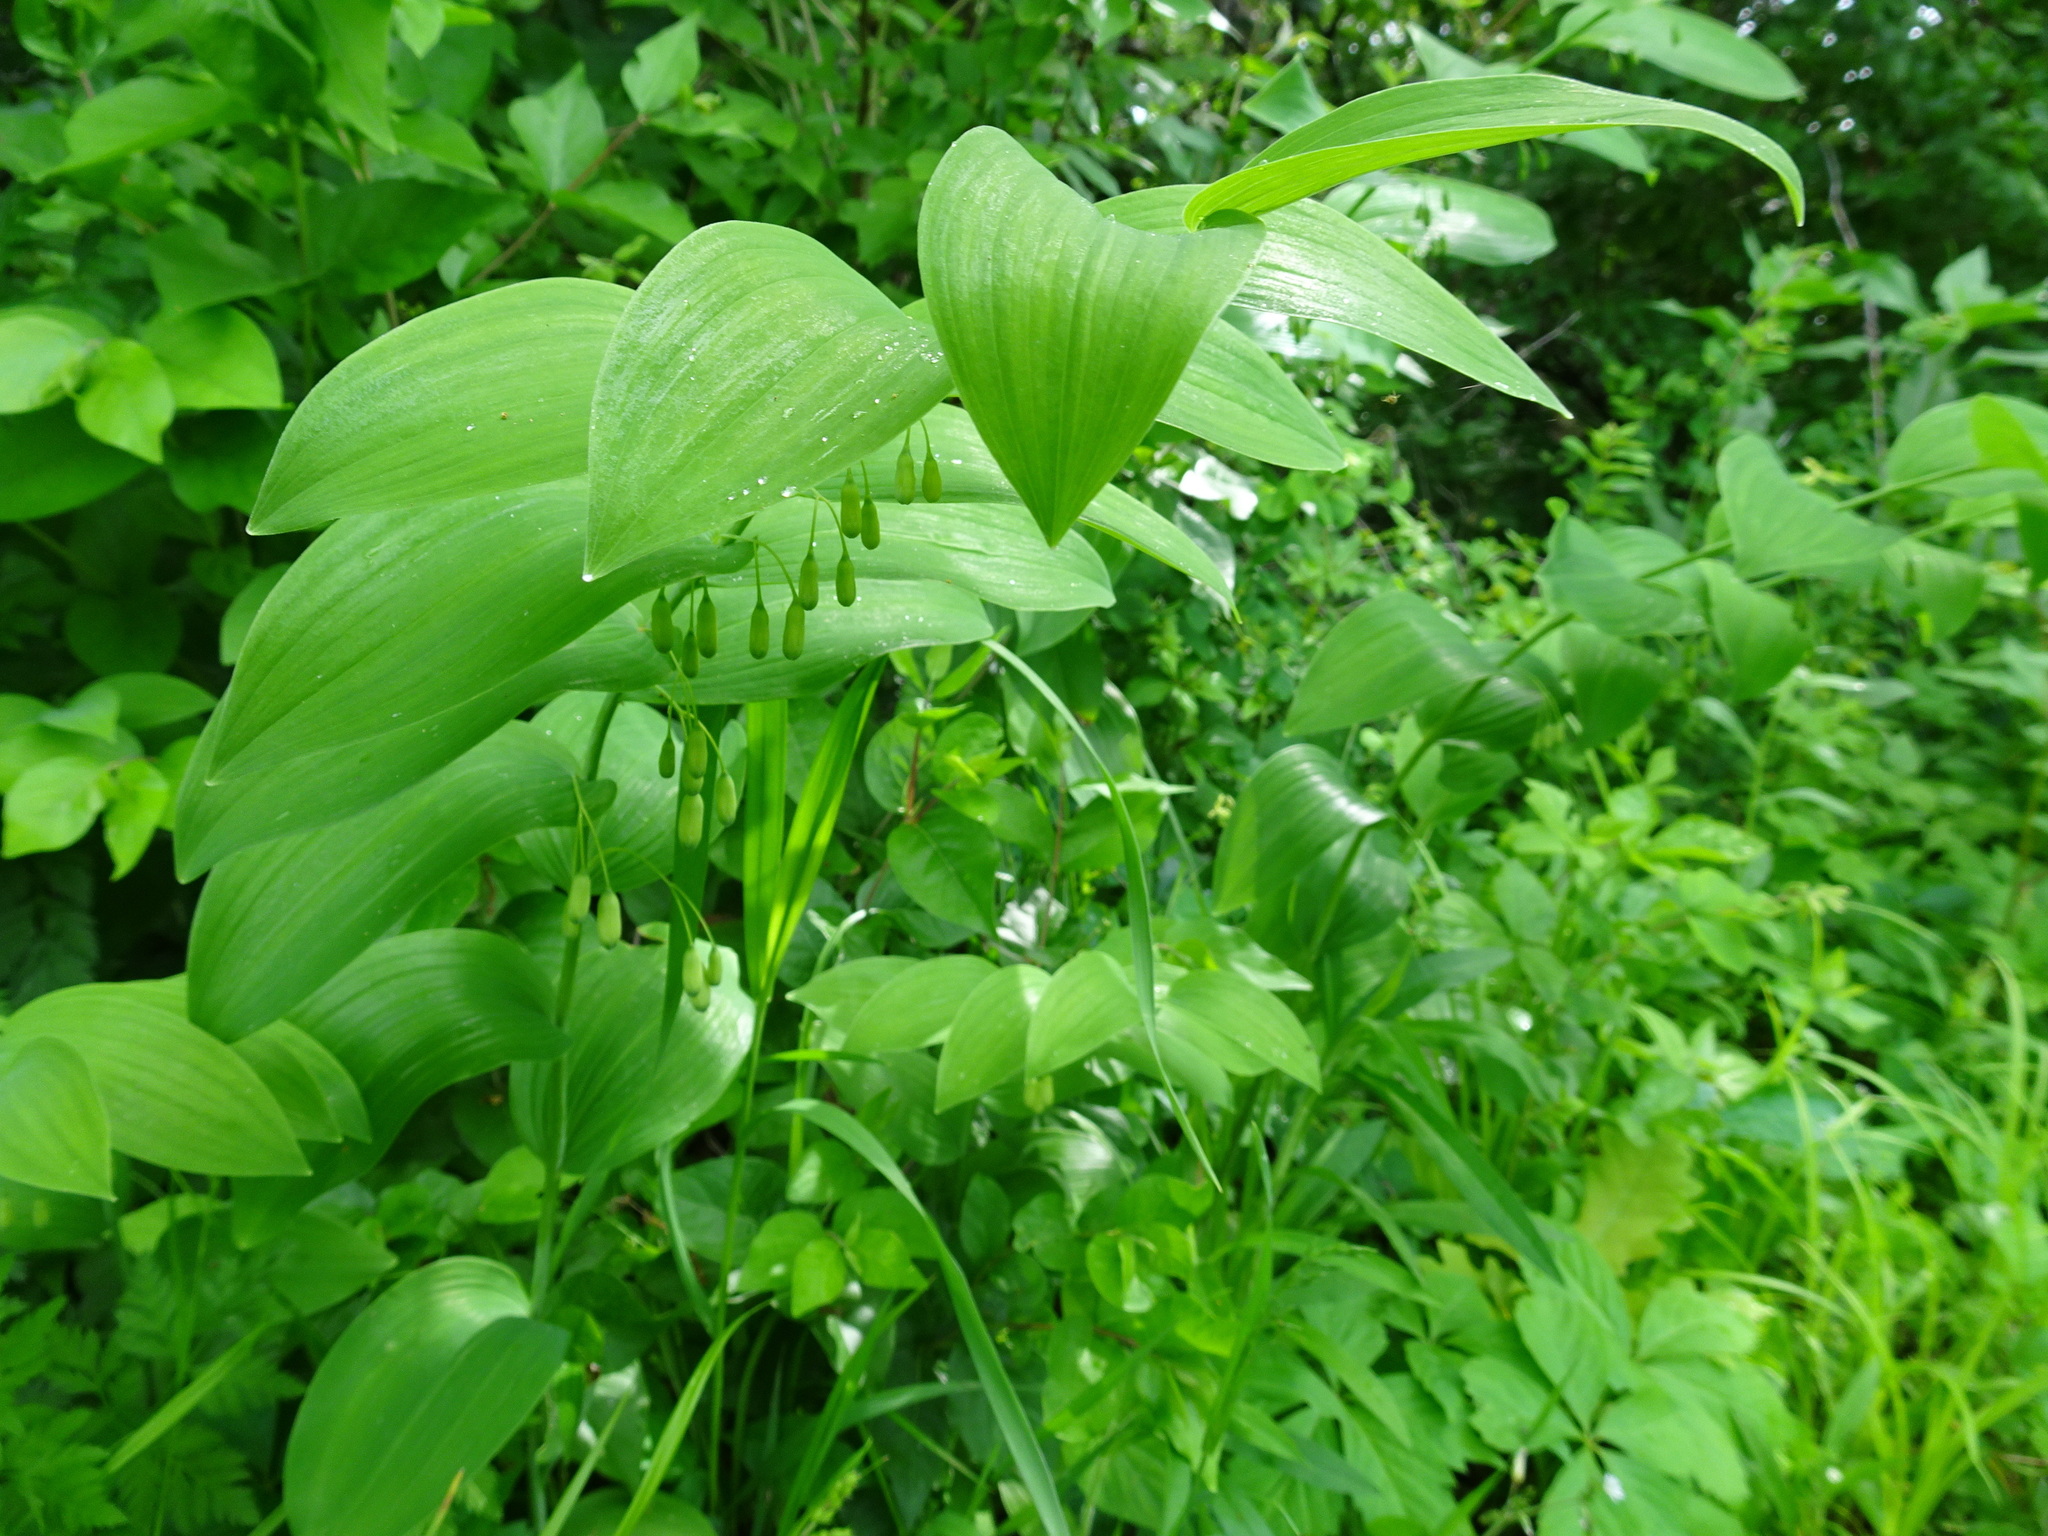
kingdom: Plantae
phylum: Tracheophyta
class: Liliopsida
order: Asparagales
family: Asparagaceae
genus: Polygonatum
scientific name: Polygonatum biflorum
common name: American solomon's-seal
